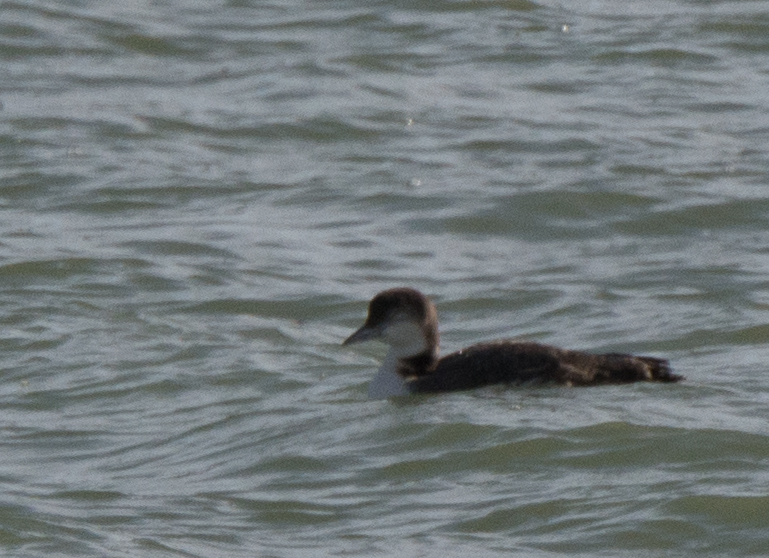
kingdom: Animalia
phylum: Chordata
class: Aves
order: Gaviiformes
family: Gaviidae
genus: Gavia
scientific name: Gavia immer
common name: Common loon
